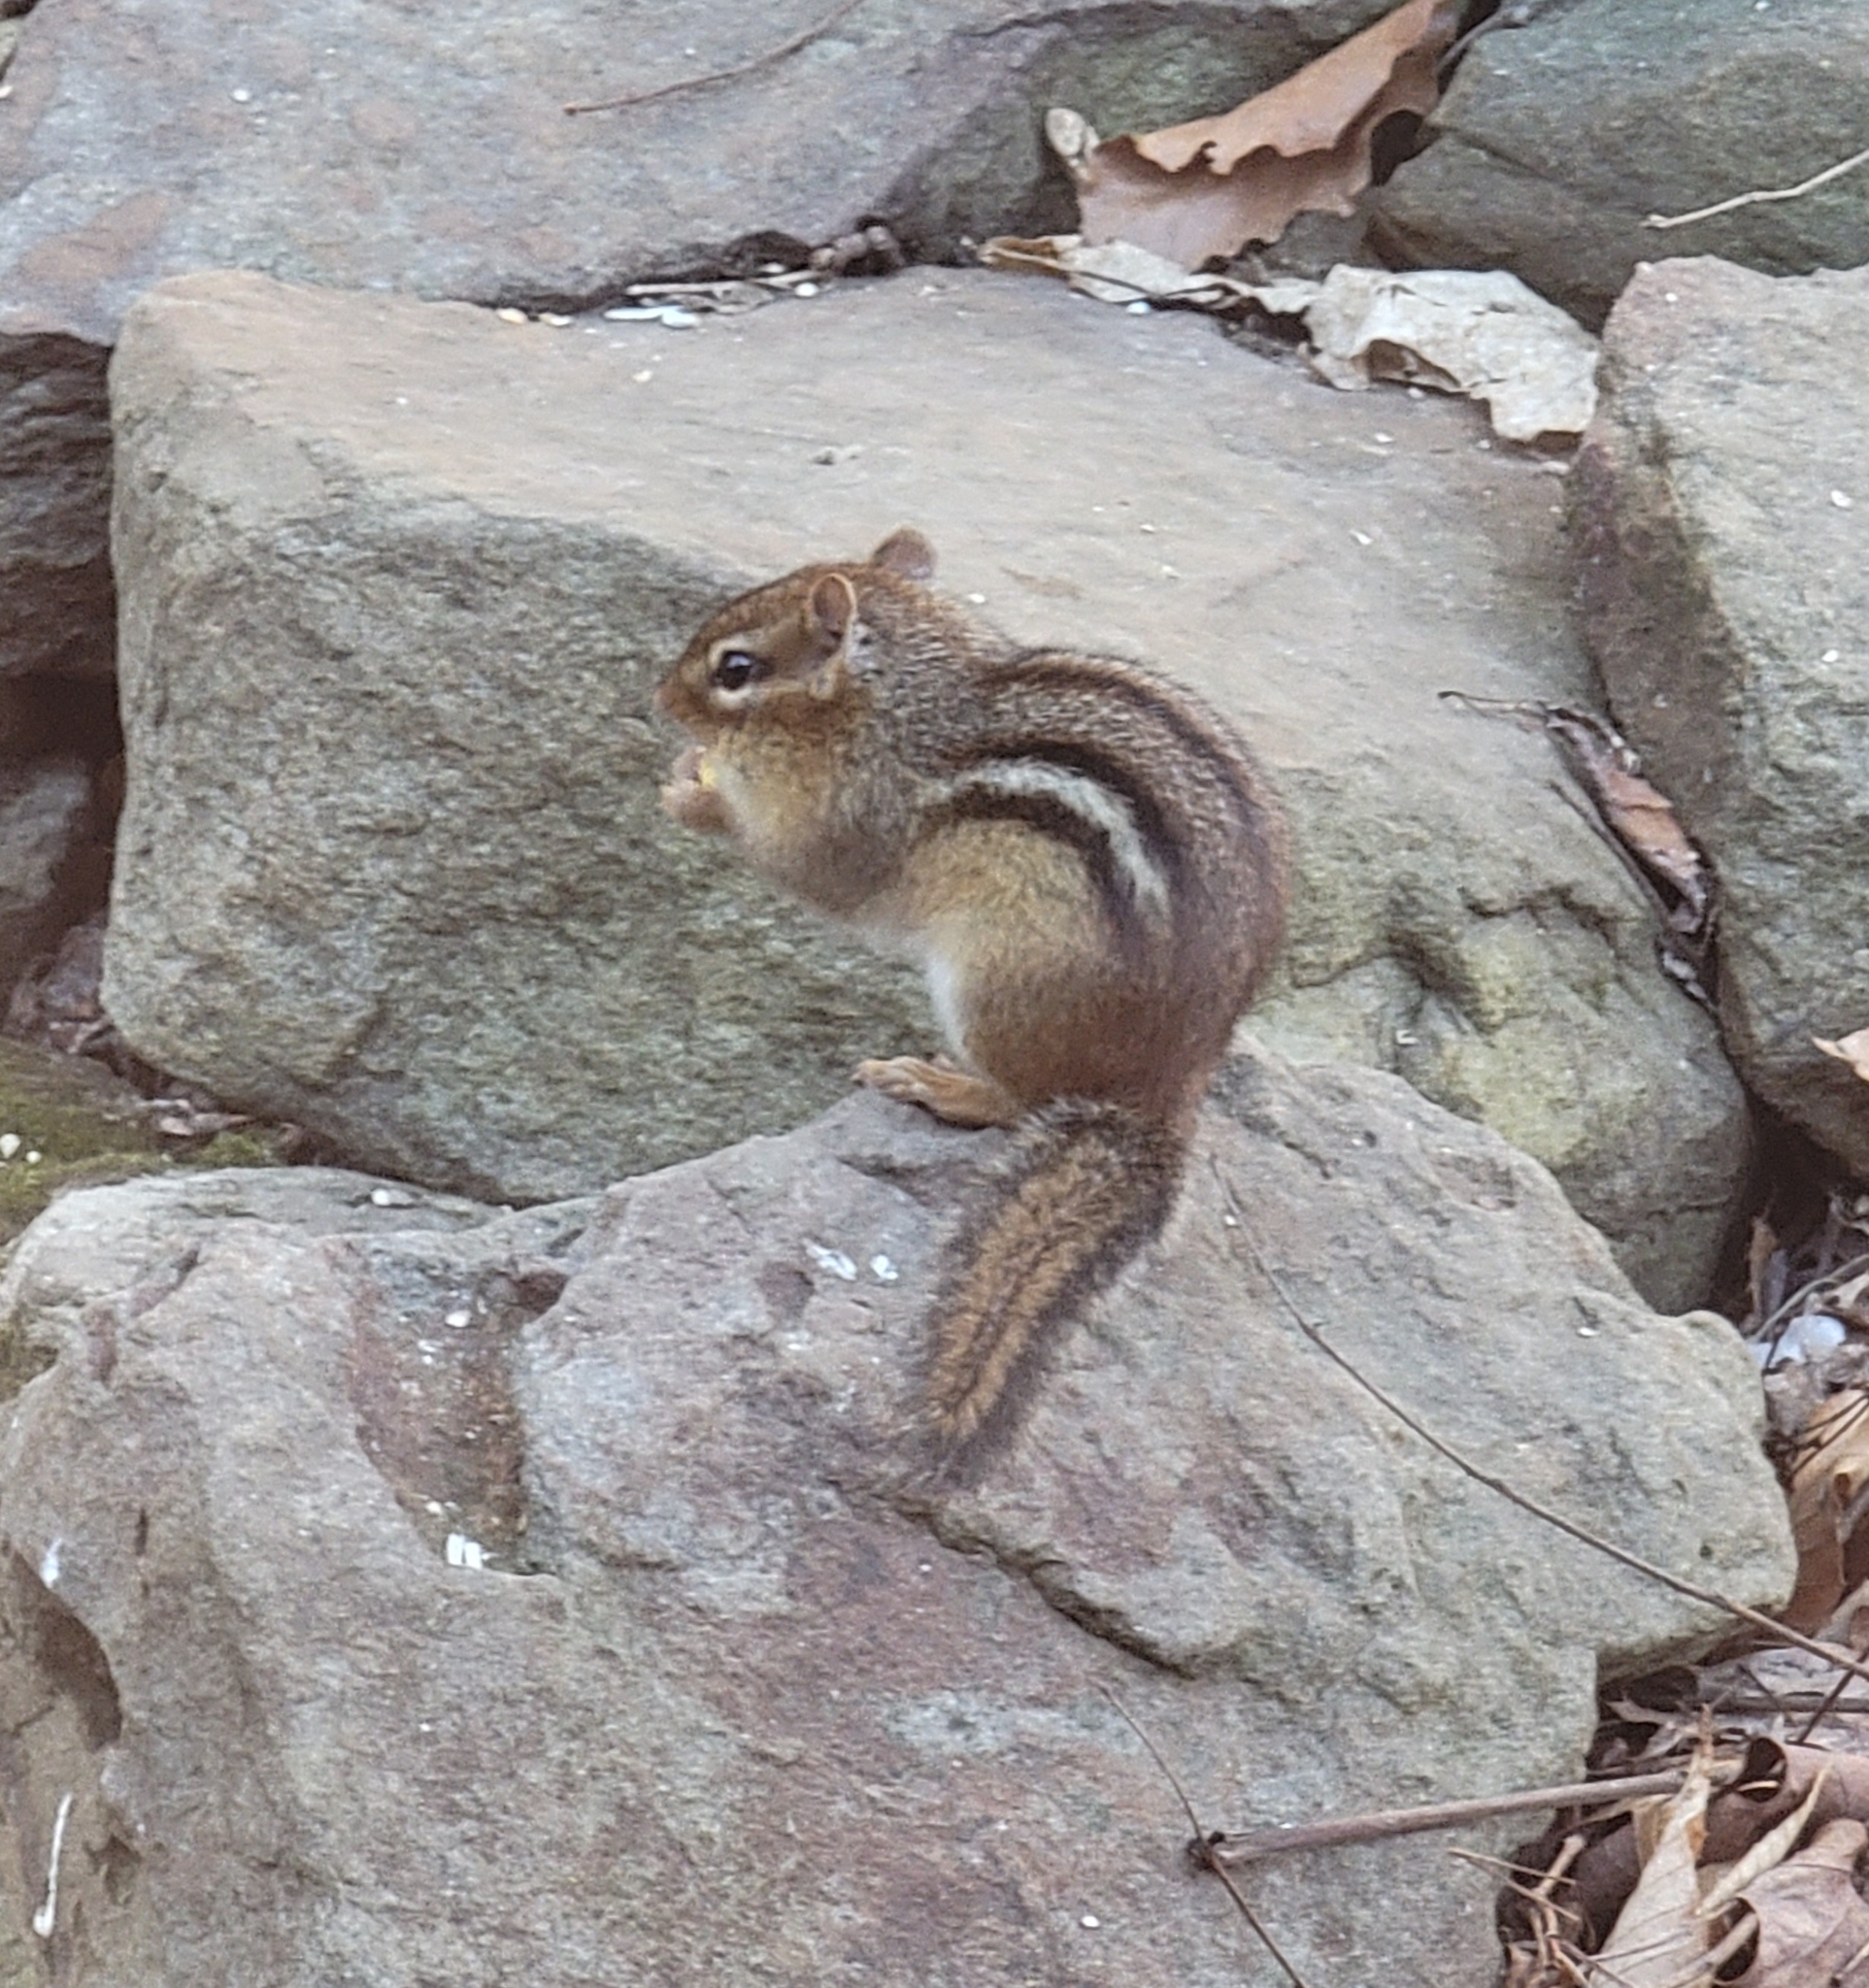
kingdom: Animalia
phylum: Chordata
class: Mammalia
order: Rodentia
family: Sciuridae
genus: Tamias
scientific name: Tamias striatus
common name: Eastern chipmunk
